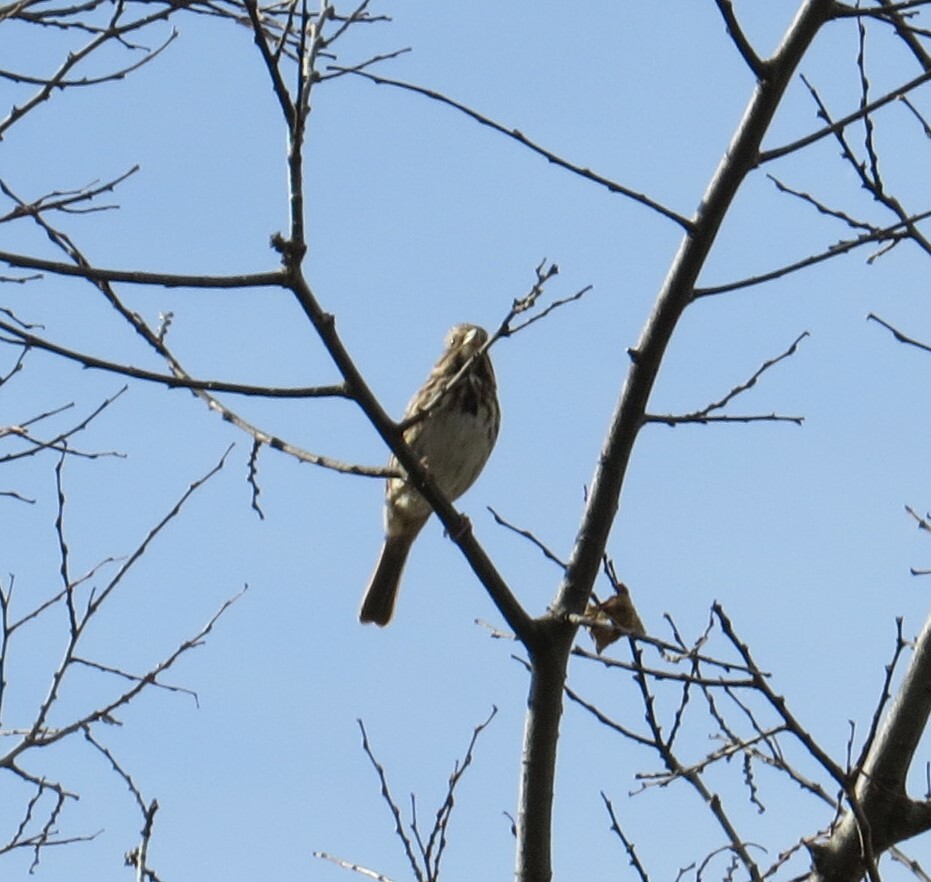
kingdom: Animalia
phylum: Chordata
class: Aves
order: Passeriformes
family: Passerellidae
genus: Melospiza
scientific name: Melospiza melodia
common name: Song sparrow
